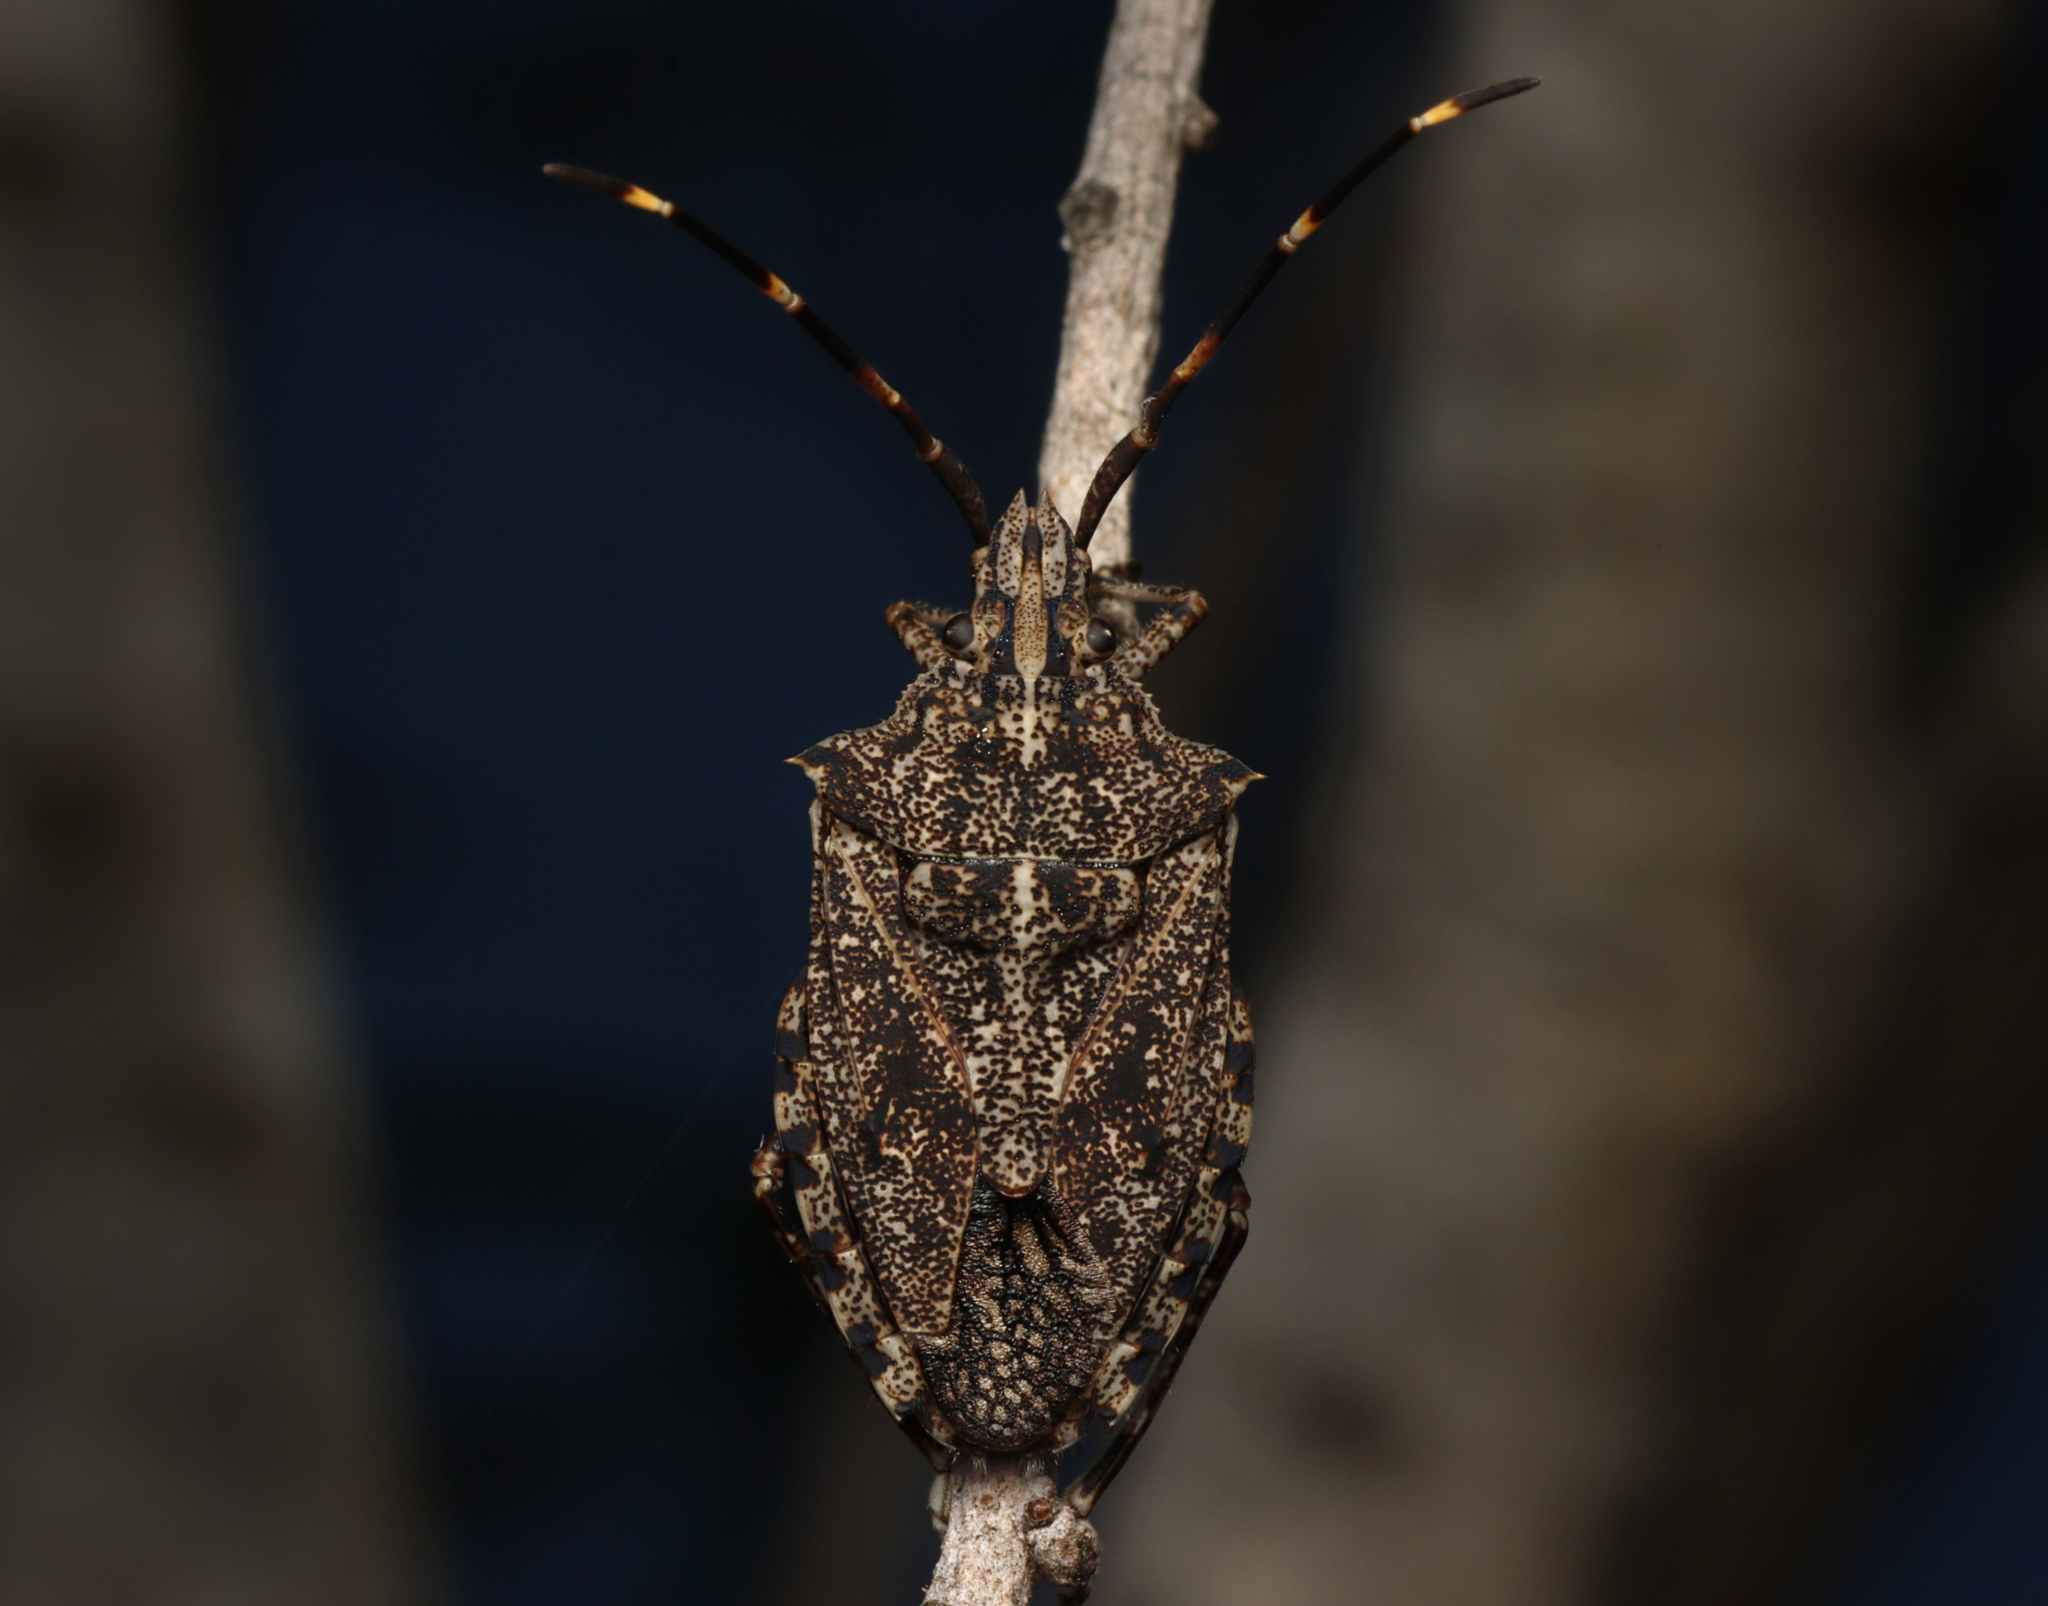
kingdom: Animalia
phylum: Arthropoda
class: Insecta
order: Hemiptera
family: Pentatomidae
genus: Alcaeus
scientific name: Alcaeus
